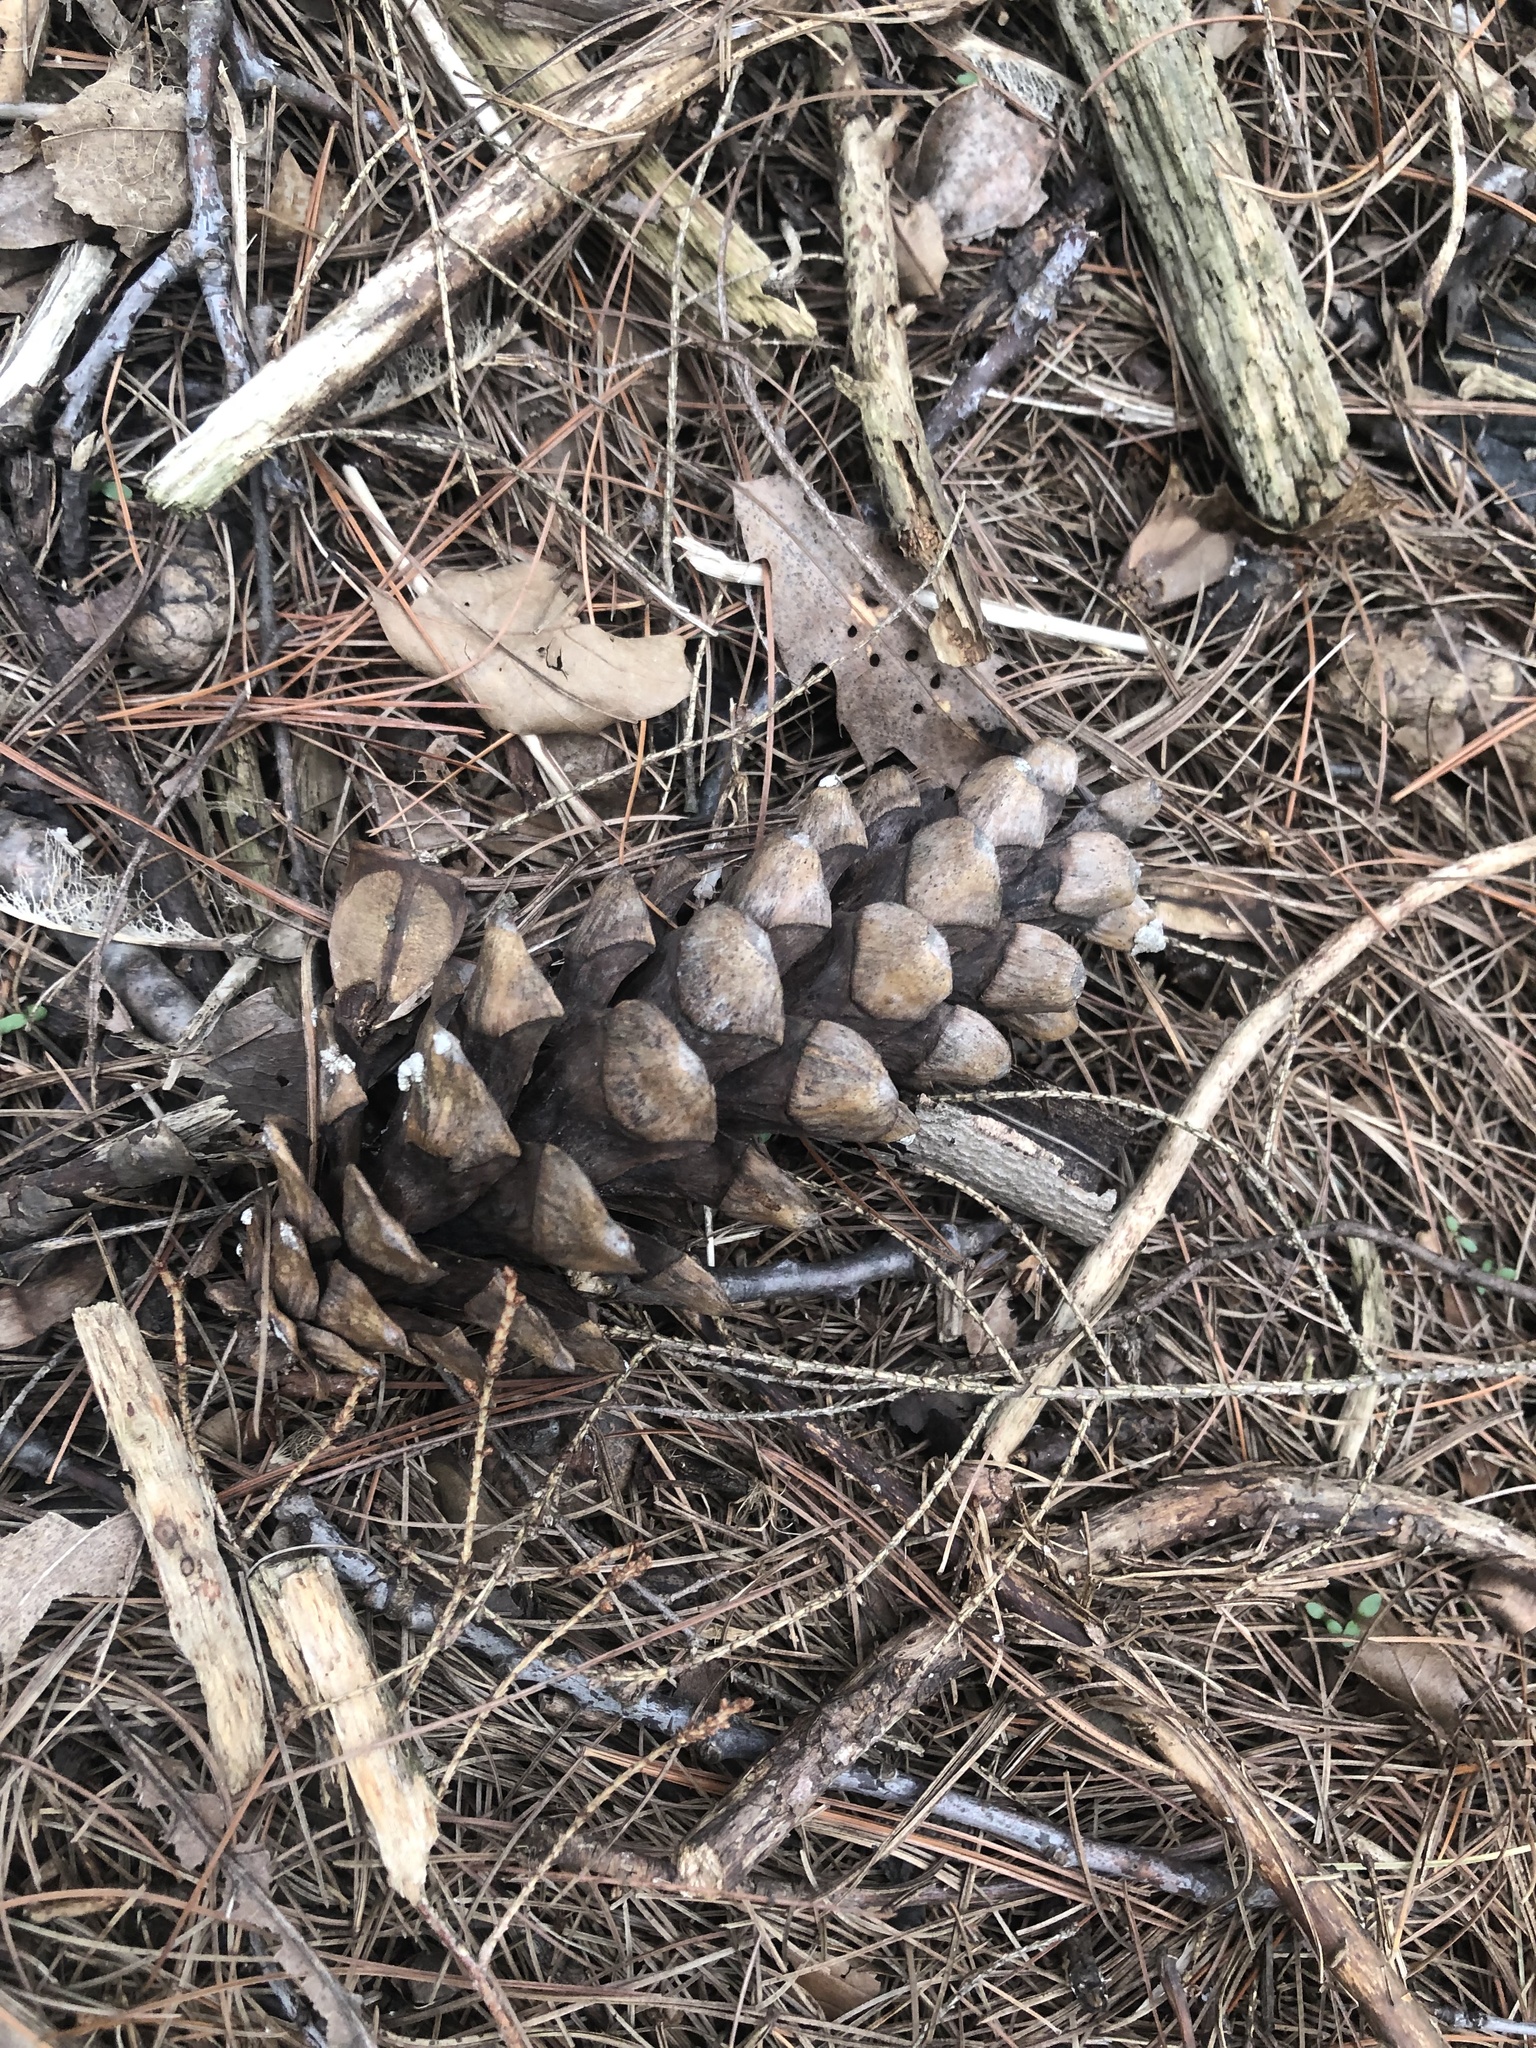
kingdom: Plantae
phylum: Tracheophyta
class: Pinopsida
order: Pinales
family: Pinaceae
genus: Pinus
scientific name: Pinus strobus
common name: Weymouth pine
